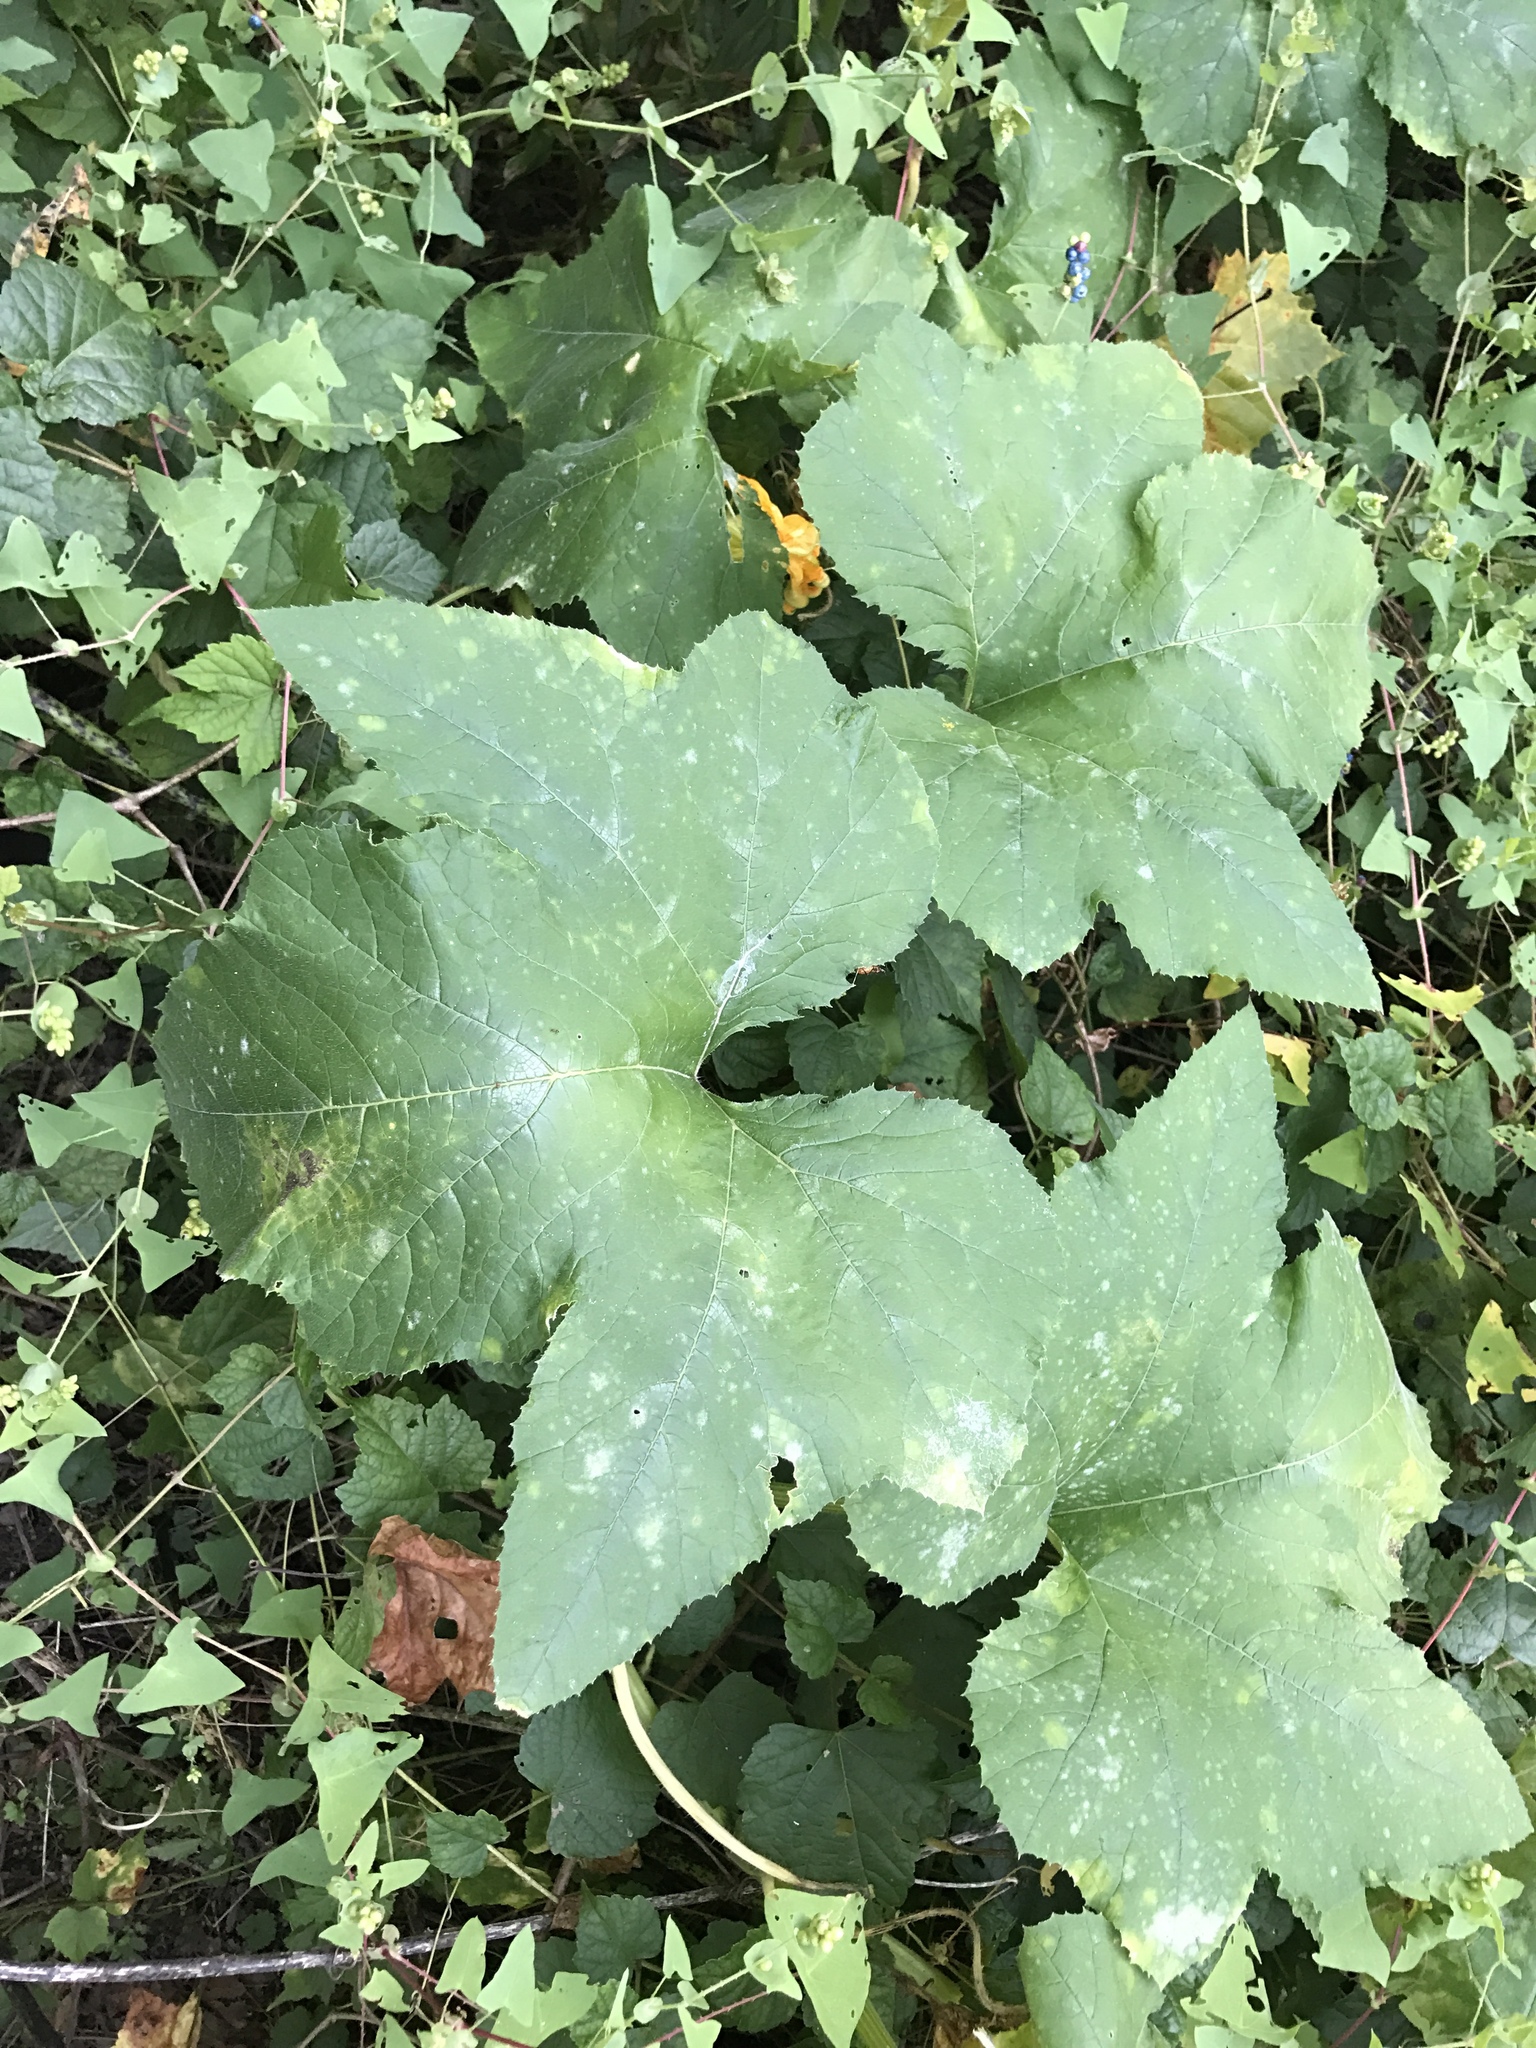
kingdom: Plantae
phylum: Tracheophyta
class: Magnoliopsida
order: Cucurbitales
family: Cucurbitaceae
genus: Cucurbita
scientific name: Cucurbita pepo
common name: Marrow
